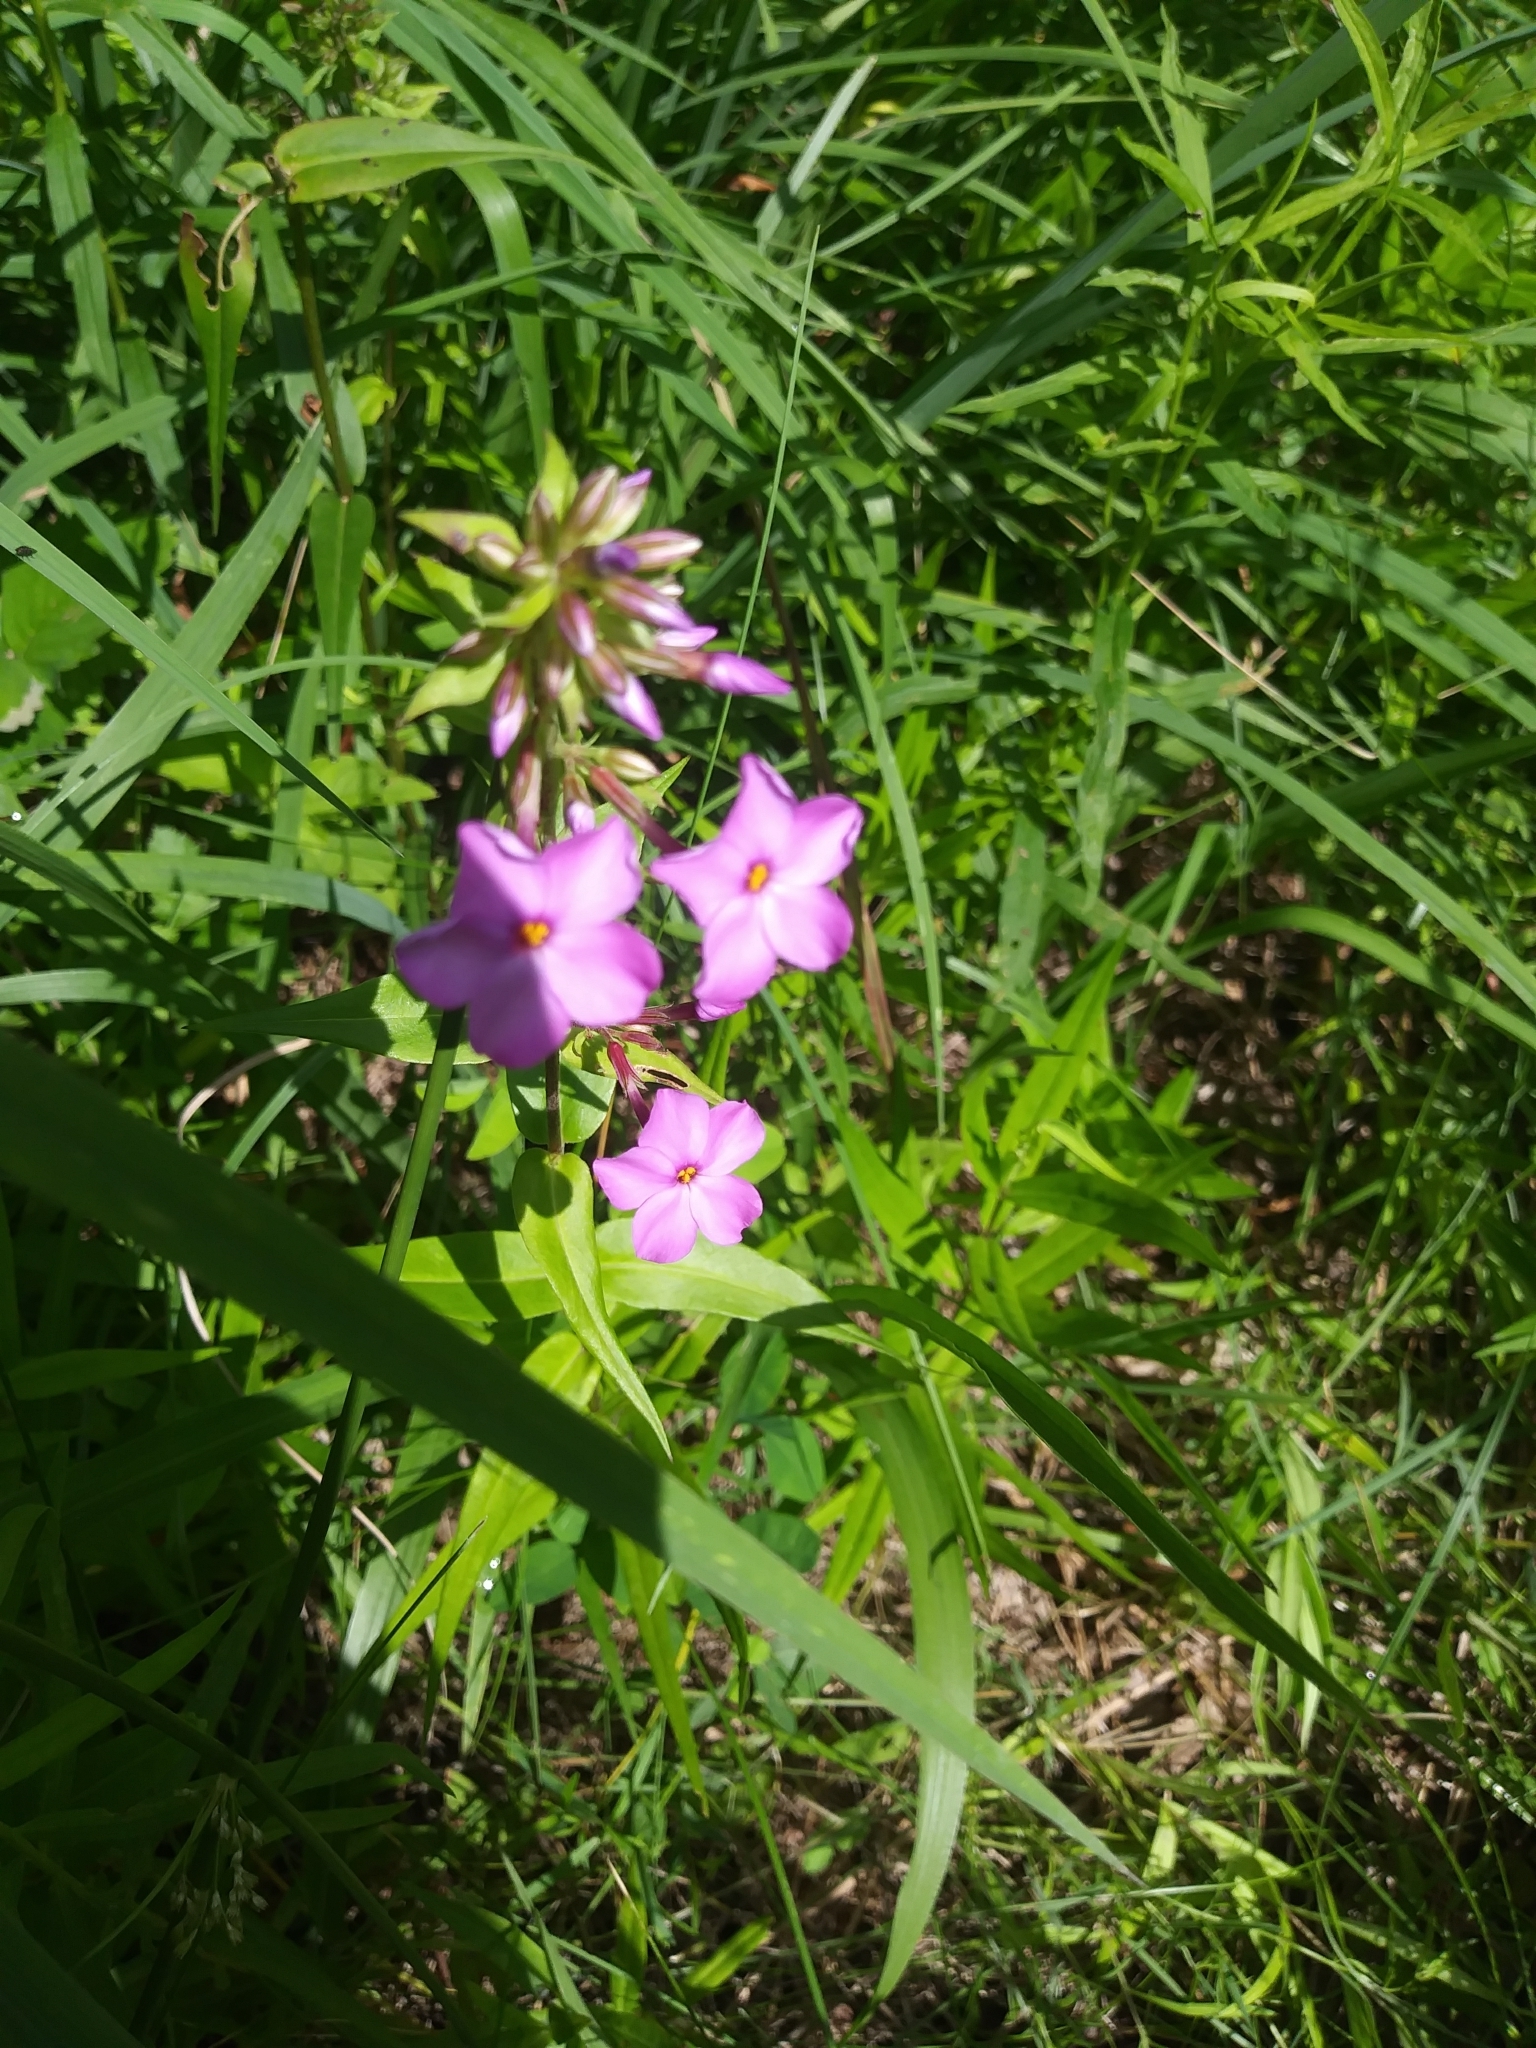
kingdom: Plantae
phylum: Tracheophyta
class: Magnoliopsida
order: Ericales
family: Polemoniaceae
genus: Phlox
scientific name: Phlox maculata
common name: Meadow phlox
